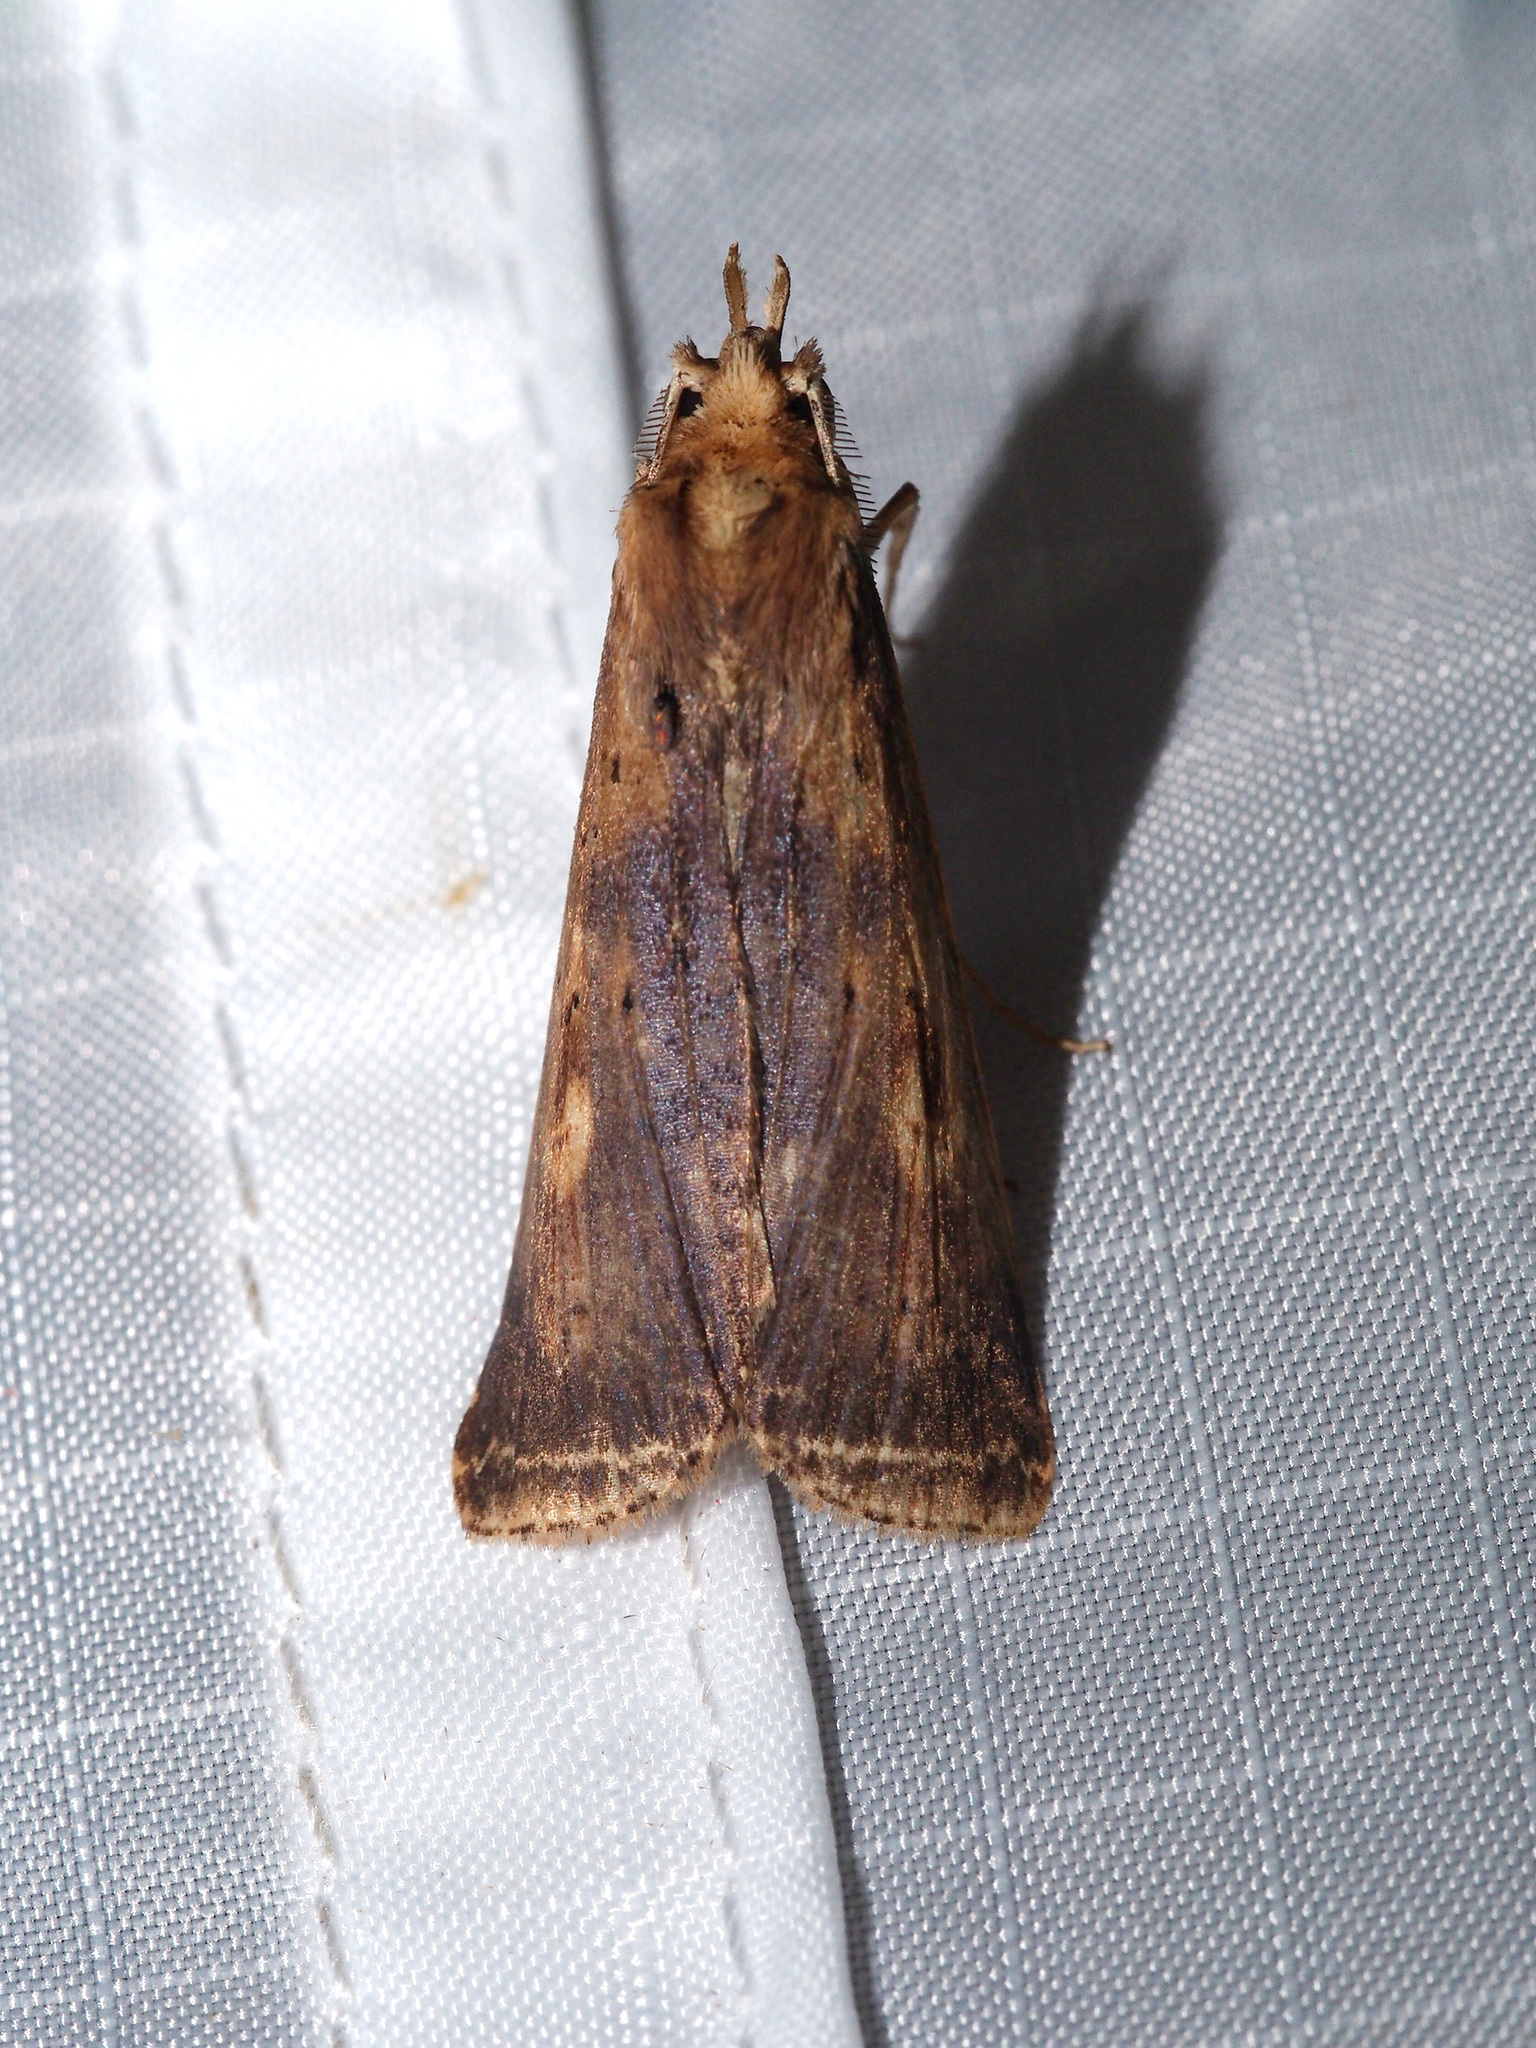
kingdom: Animalia
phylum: Arthropoda
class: Insecta
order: Lepidoptera
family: Notodontidae
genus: Stictogargetta
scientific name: Stictogargetta lithosidia
